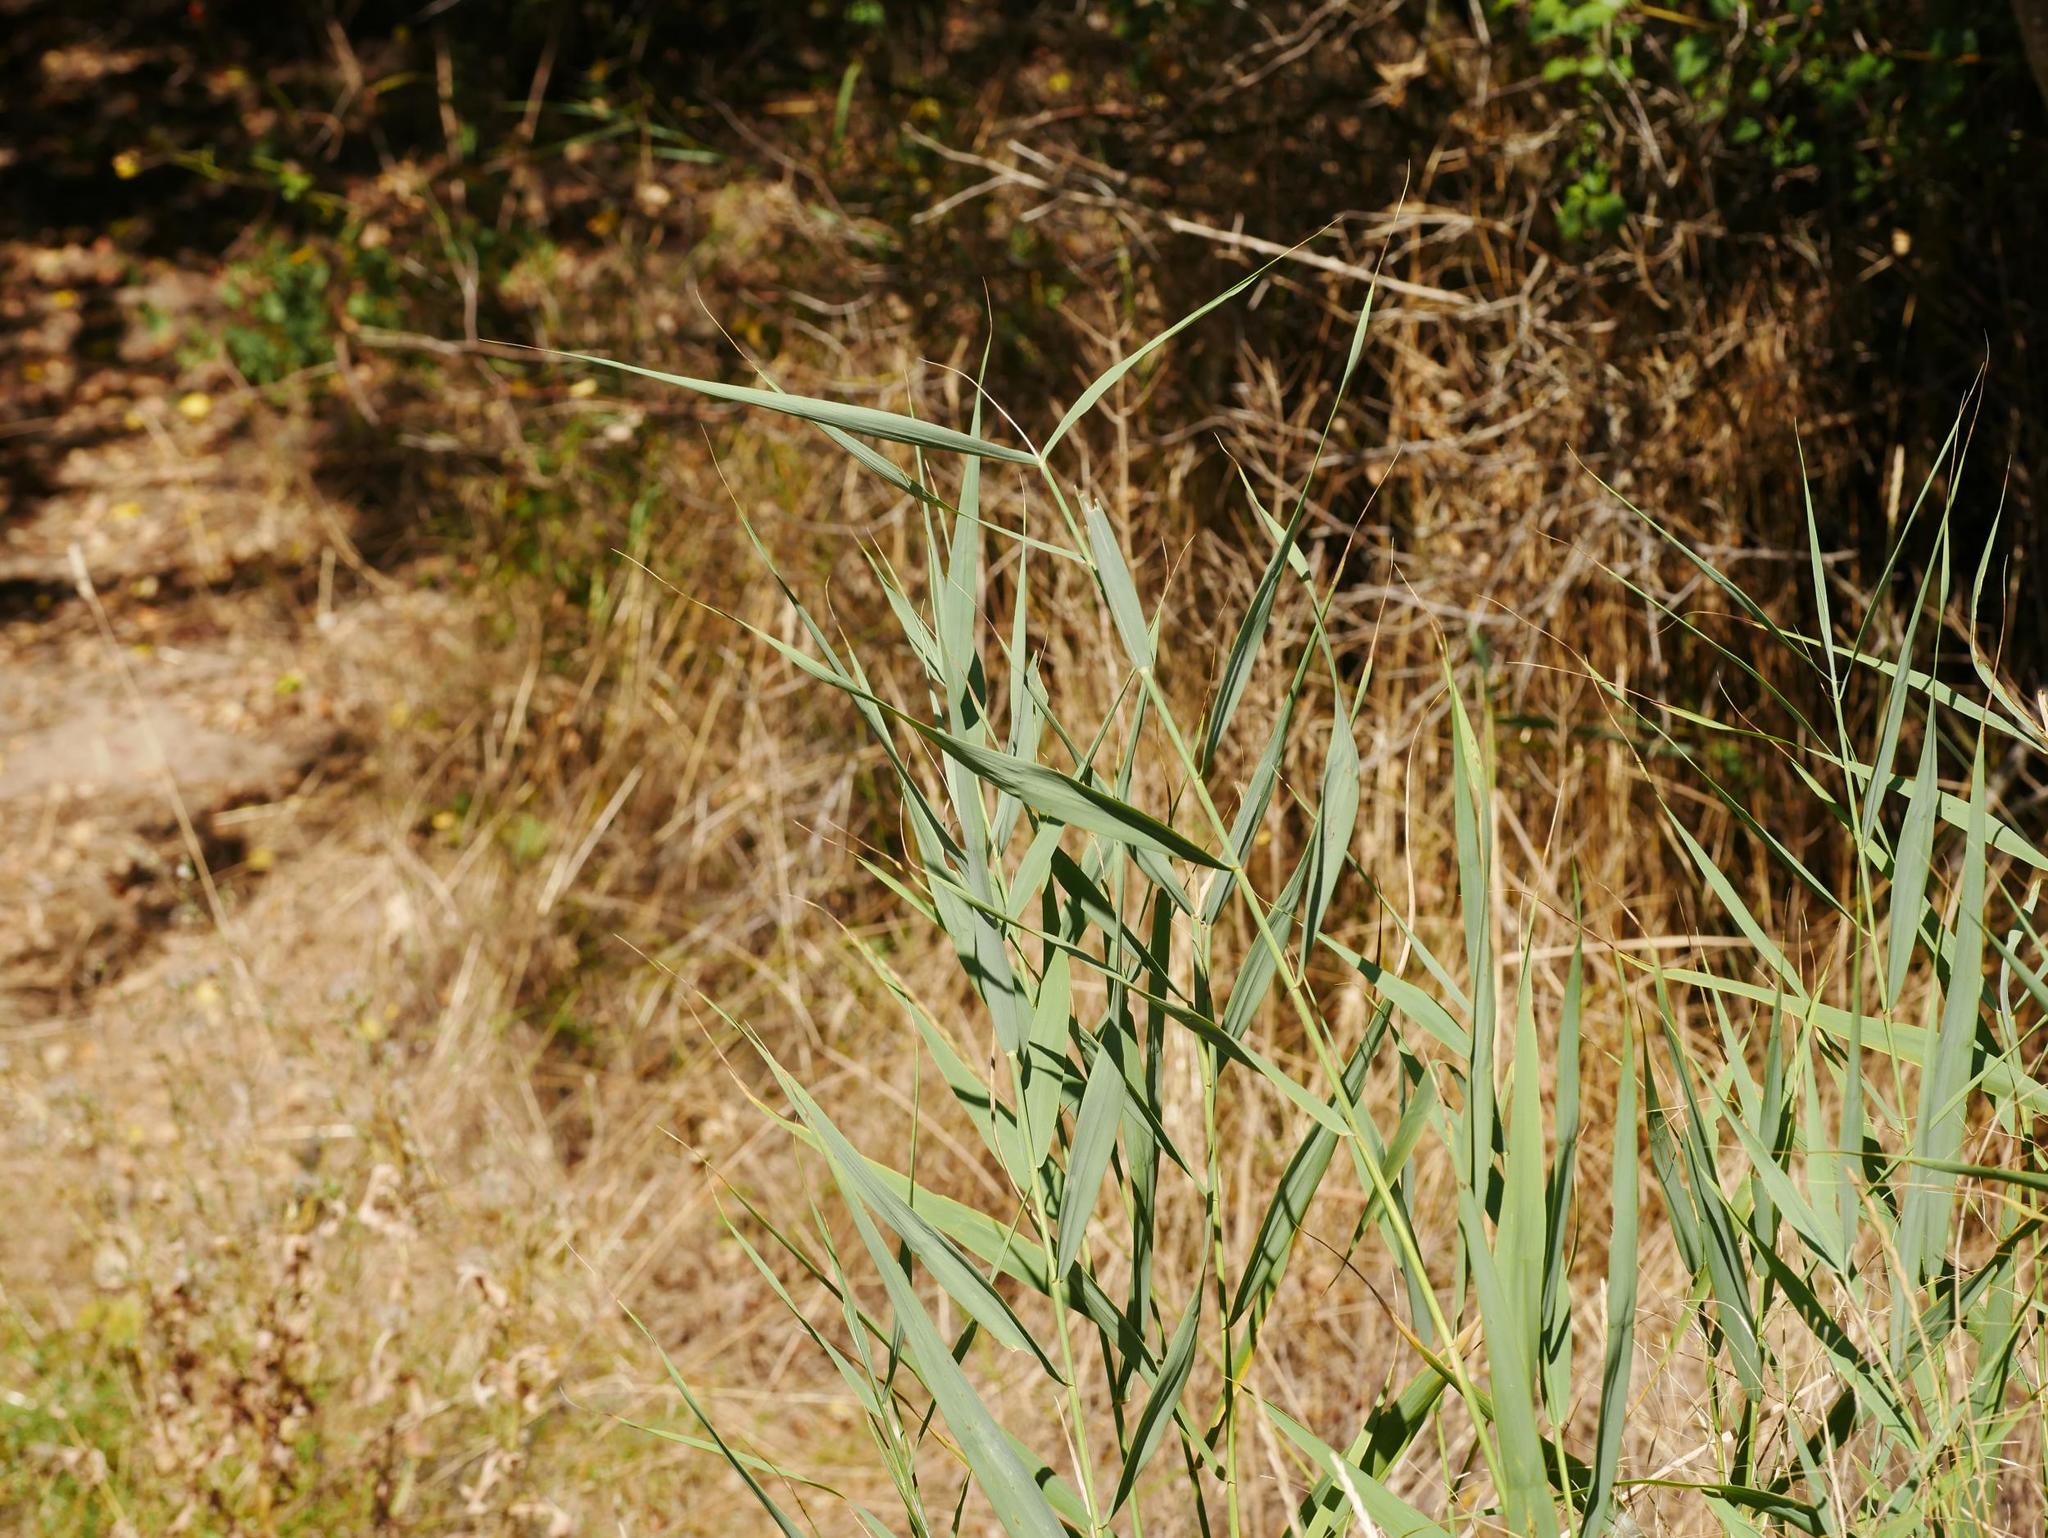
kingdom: Plantae
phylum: Tracheophyta
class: Liliopsida
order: Poales
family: Poaceae
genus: Phragmites
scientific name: Phragmites australis
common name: Common reed
